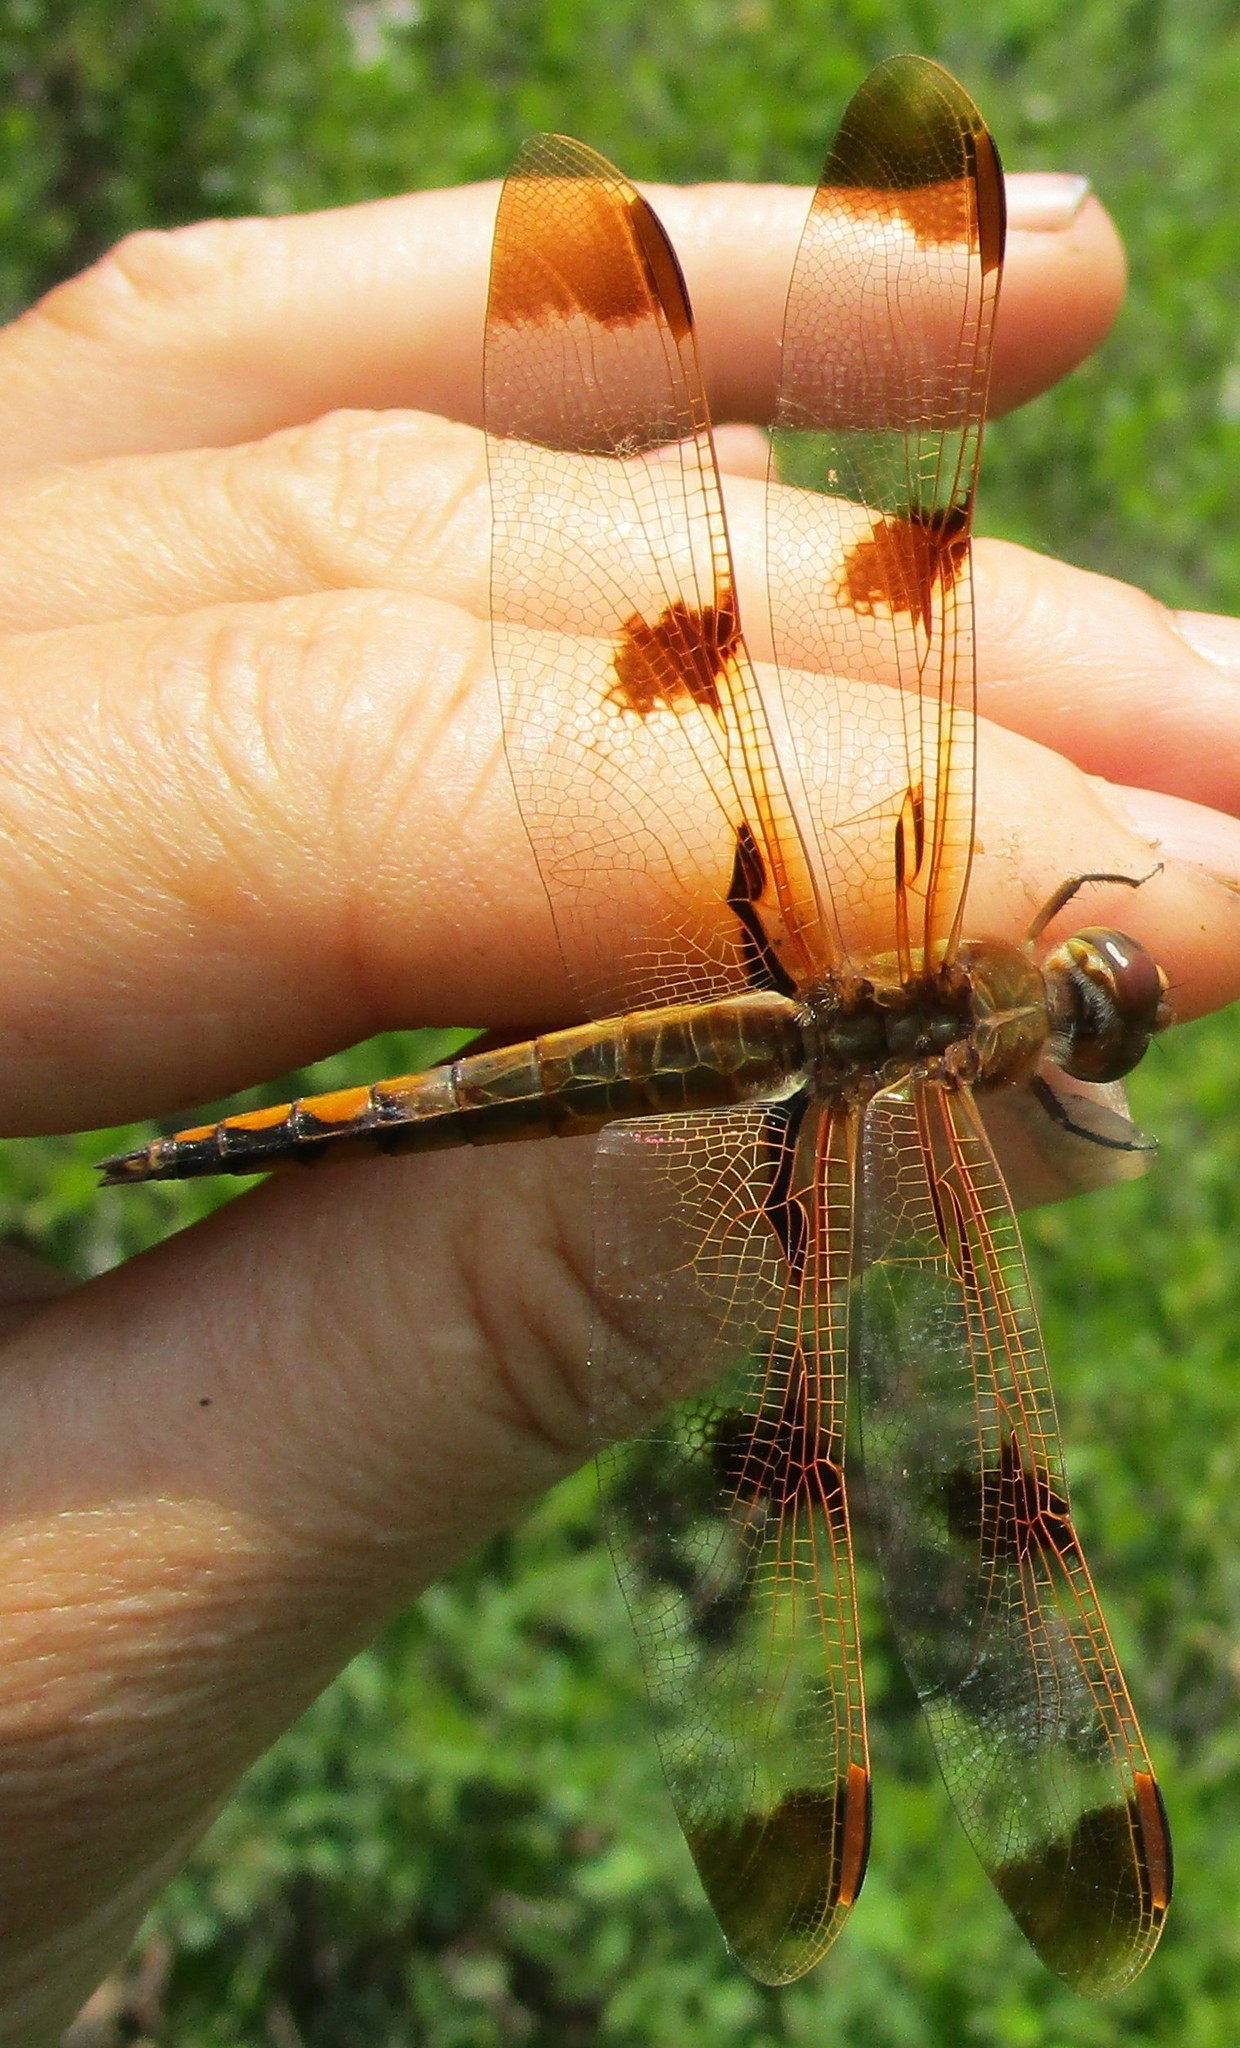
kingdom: Animalia
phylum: Arthropoda
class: Insecta
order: Odonata
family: Libellulidae
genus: Libellula
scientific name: Libellula semifasciata
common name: Painted skimmer
